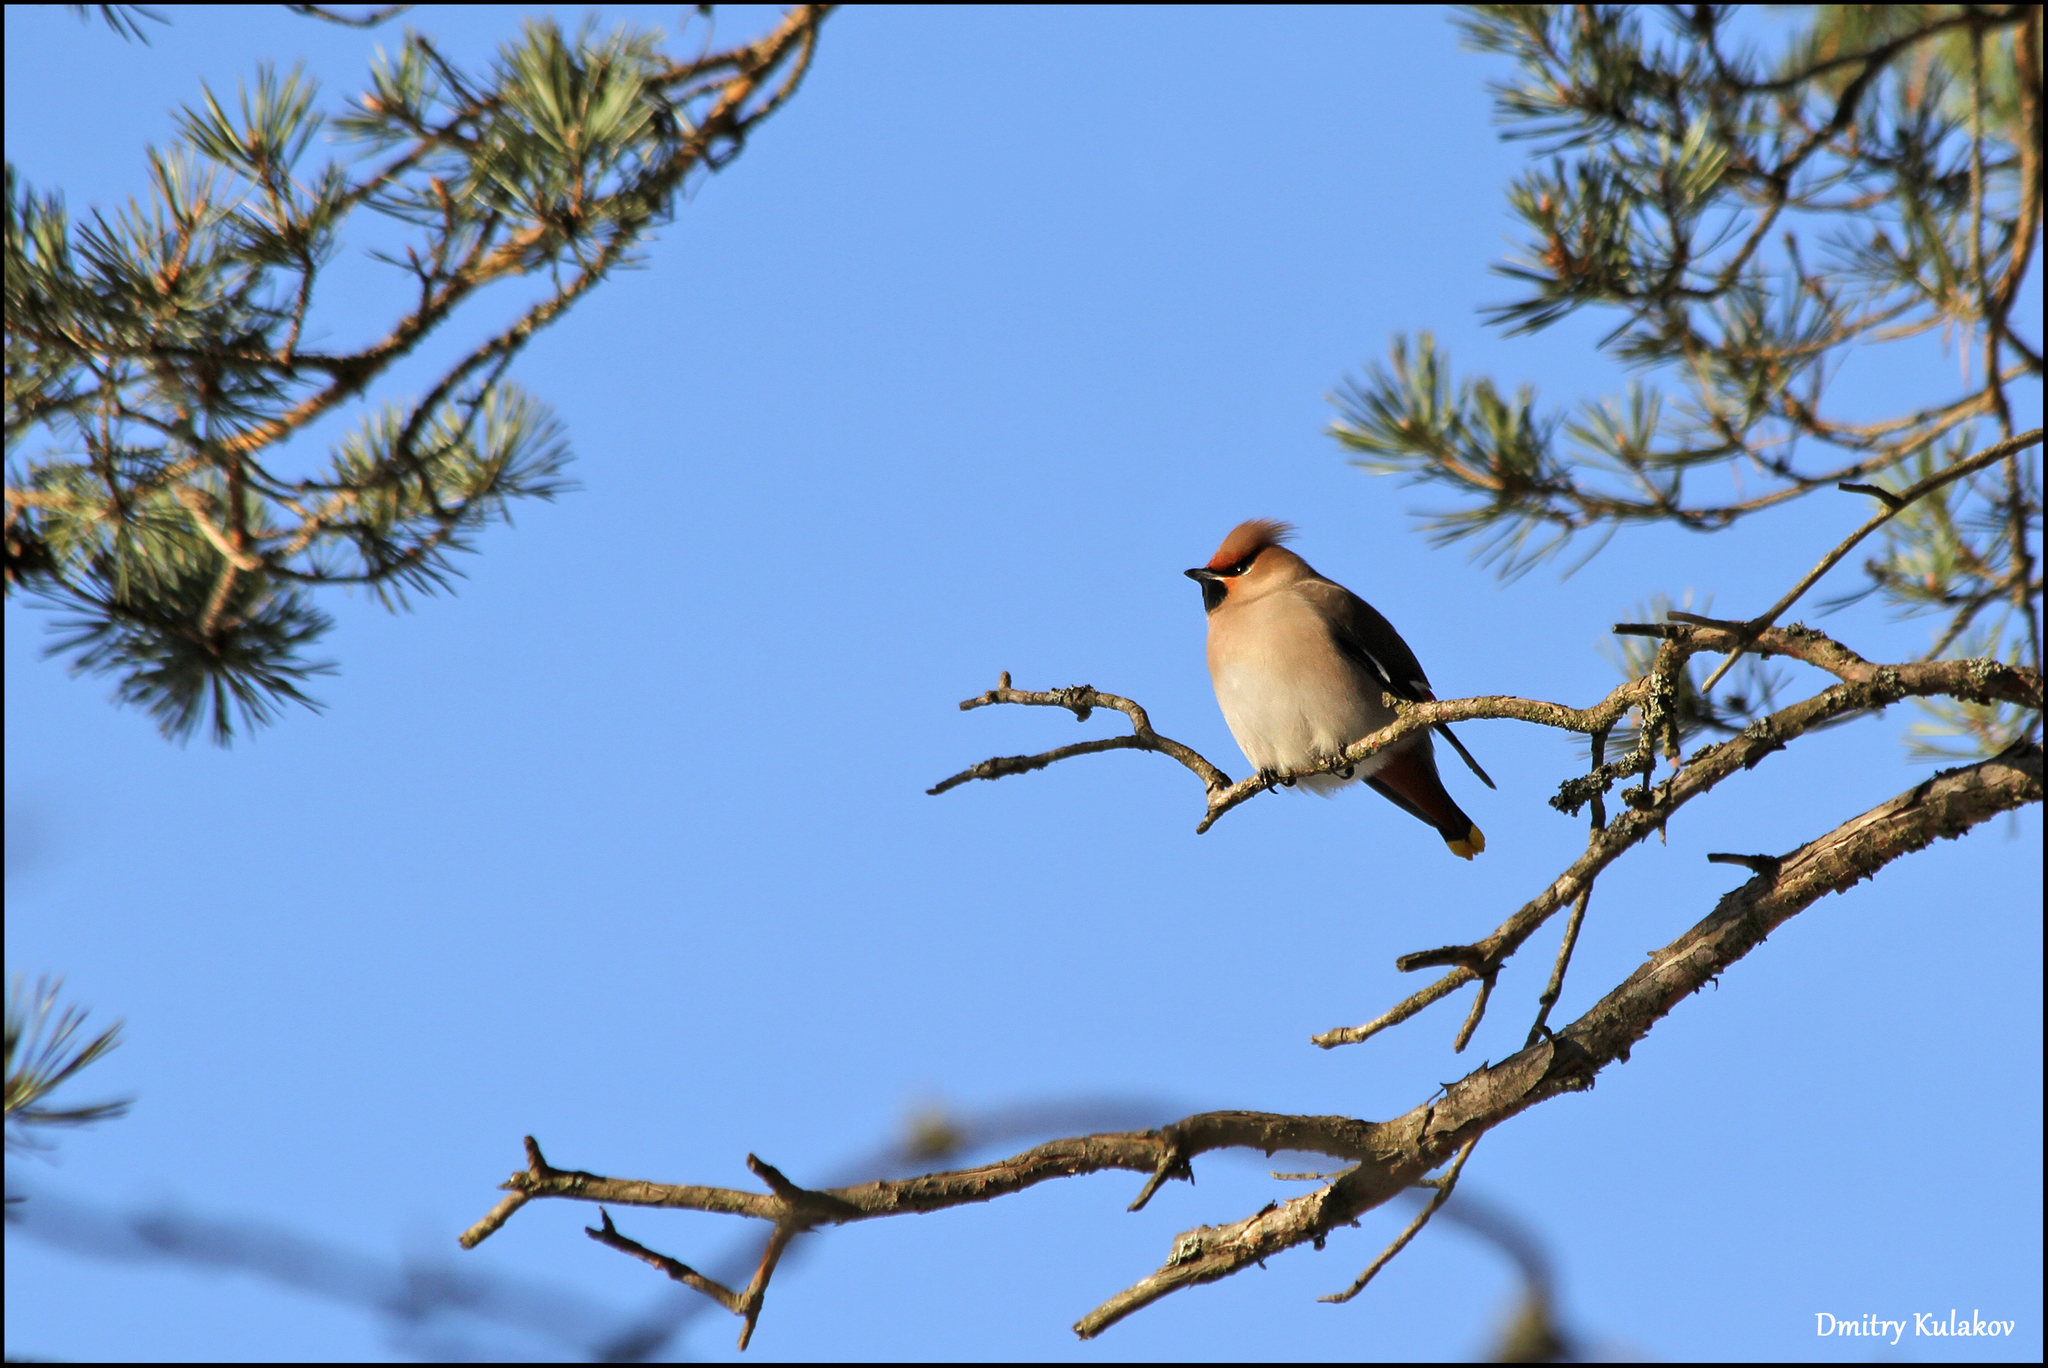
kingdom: Animalia
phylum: Chordata
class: Aves
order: Passeriformes
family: Bombycillidae
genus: Bombycilla
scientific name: Bombycilla garrulus
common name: Bohemian waxwing
